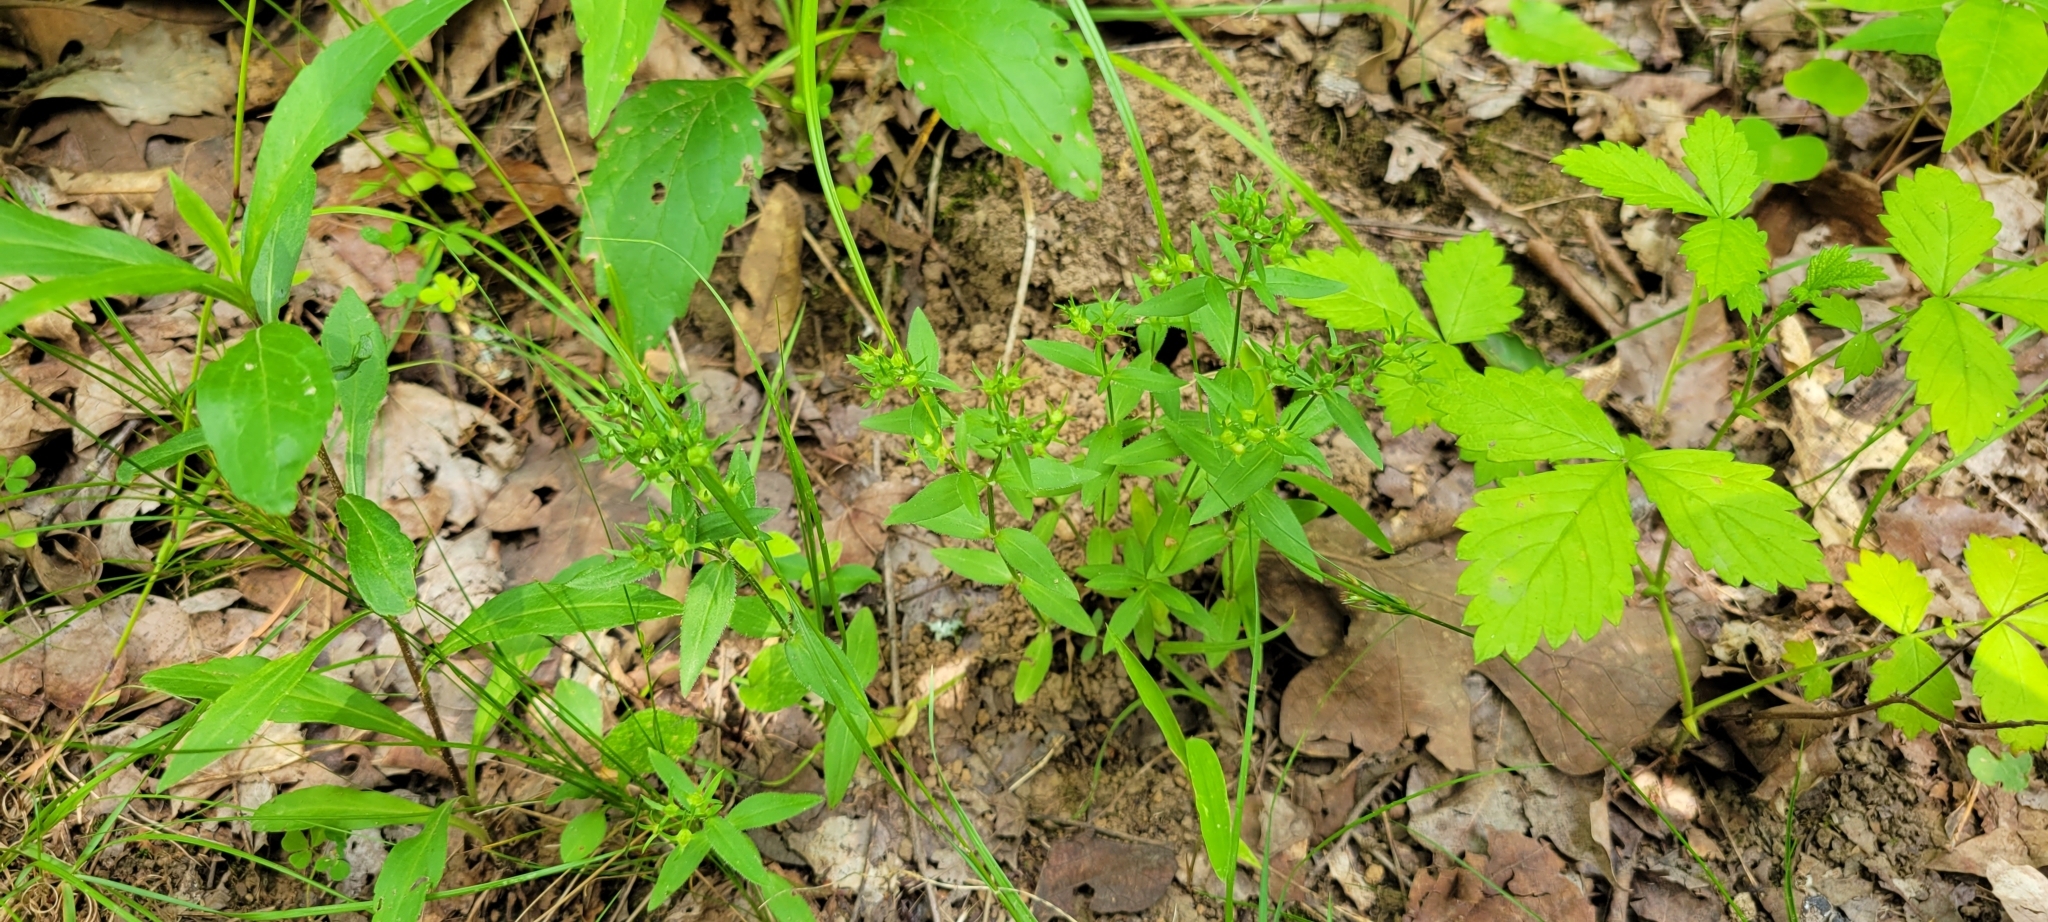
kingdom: Plantae
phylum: Tracheophyta
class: Magnoliopsida
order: Gentianales
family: Rubiaceae
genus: Houstonia
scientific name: Houstonia purpurea
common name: Summer bluet
